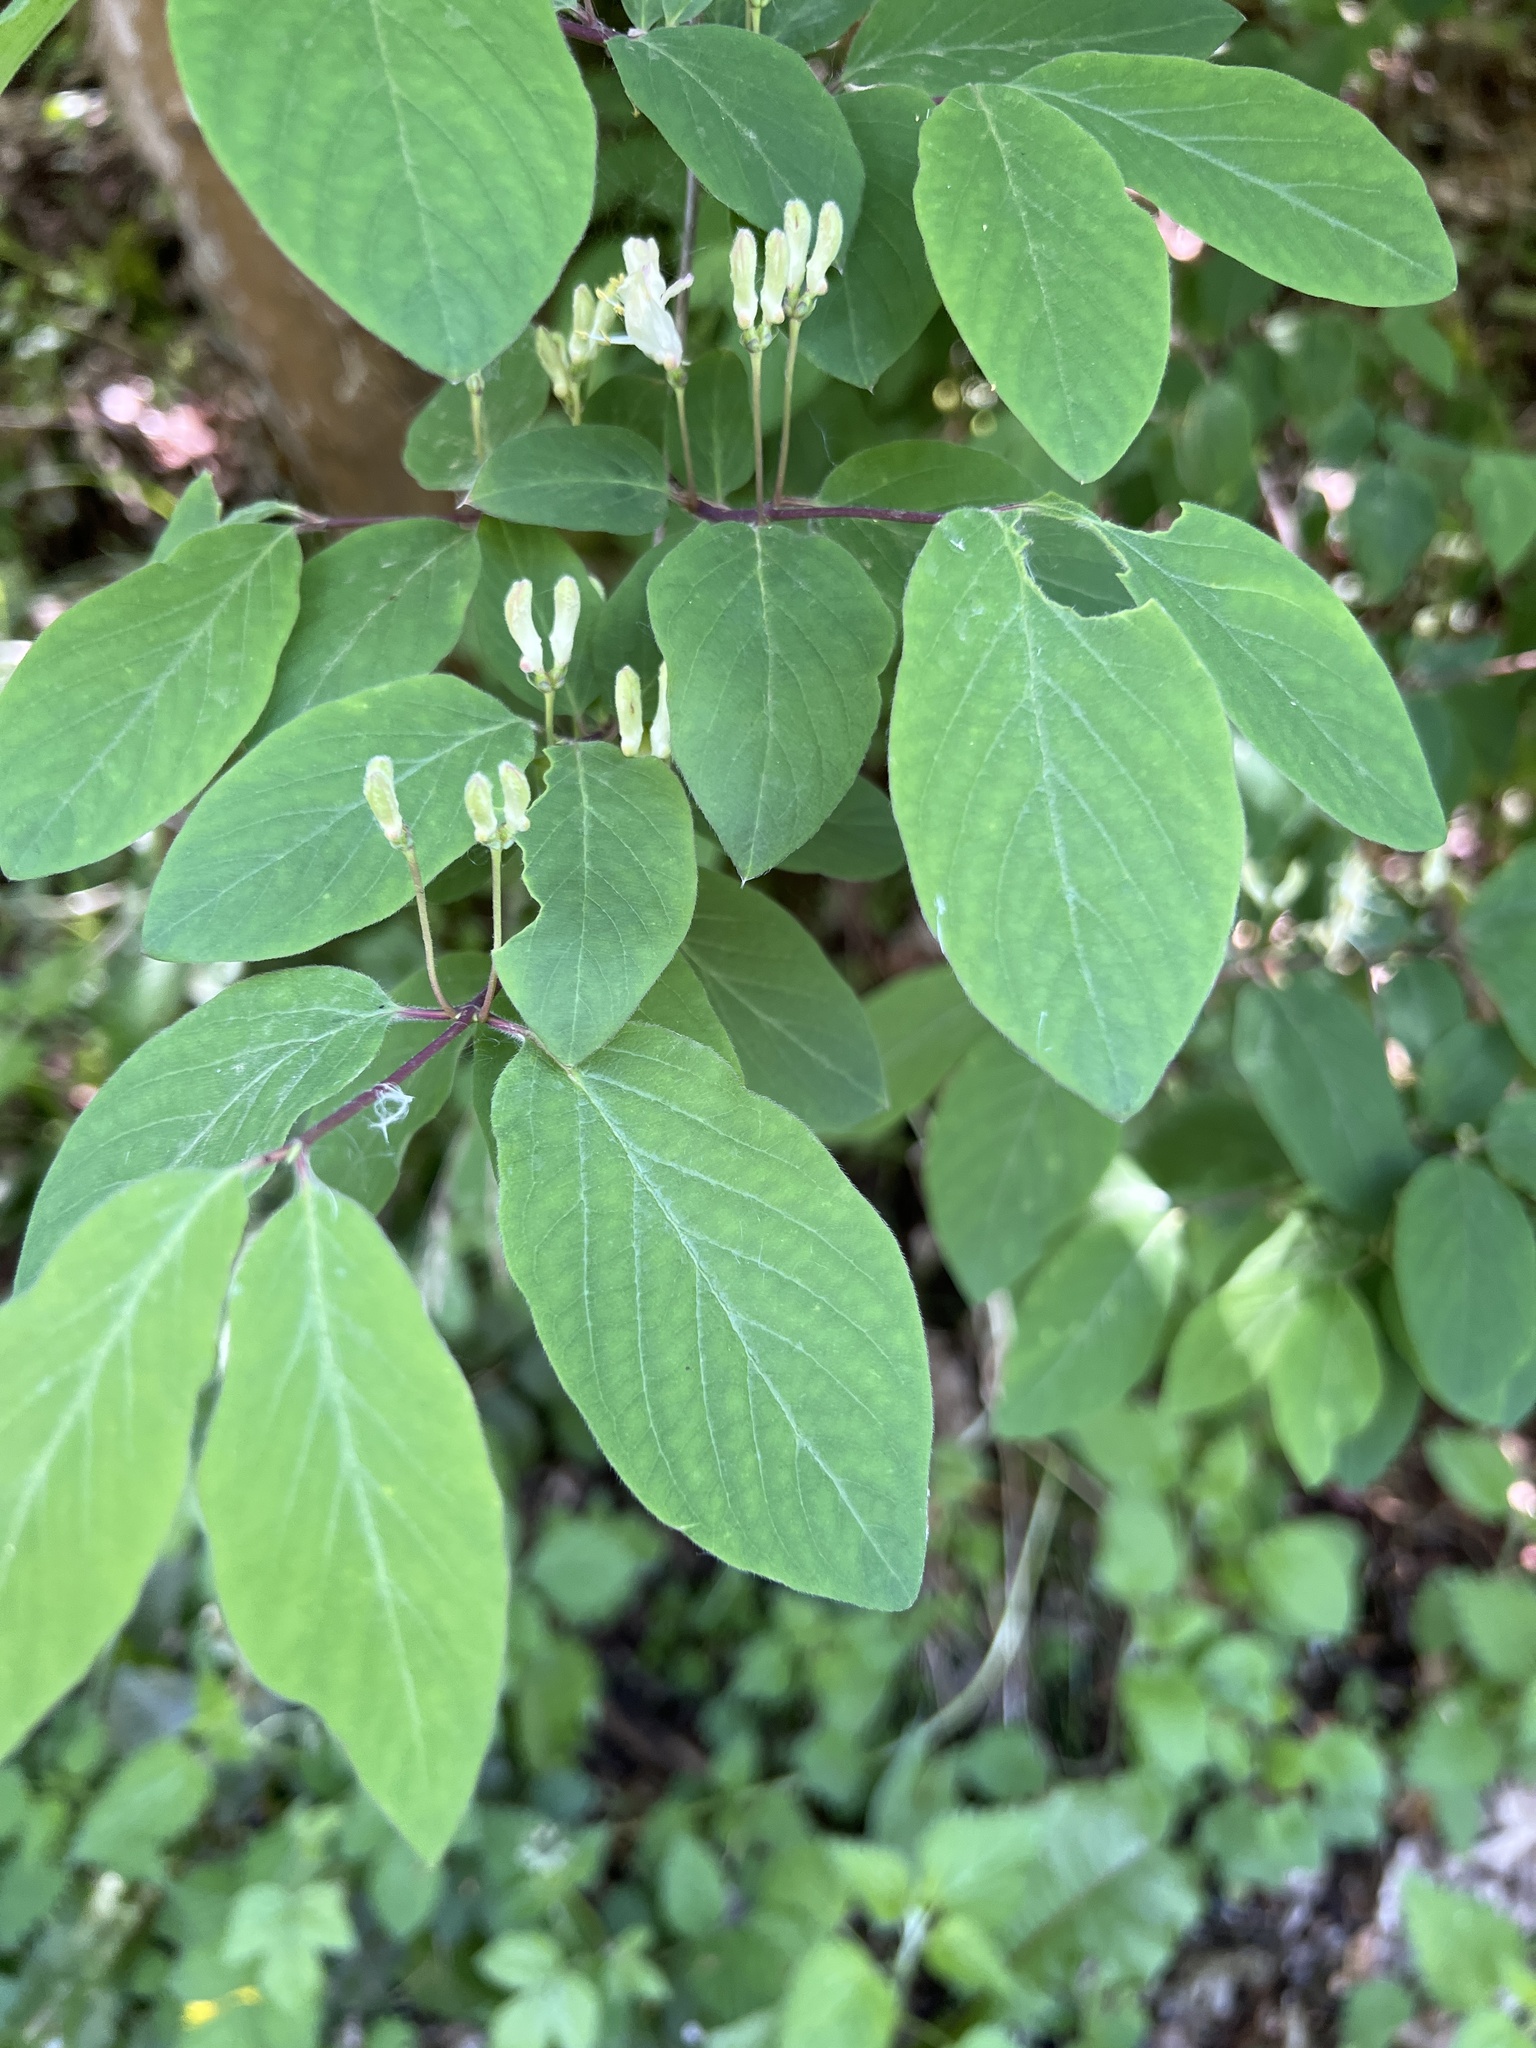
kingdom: Plantae
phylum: Tracheophyta
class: Magnoliopsida
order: Dipsacales
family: Caprifoliaceae
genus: Lonicera
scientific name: Lonicera xylosteum
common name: Fly honeysuckle
